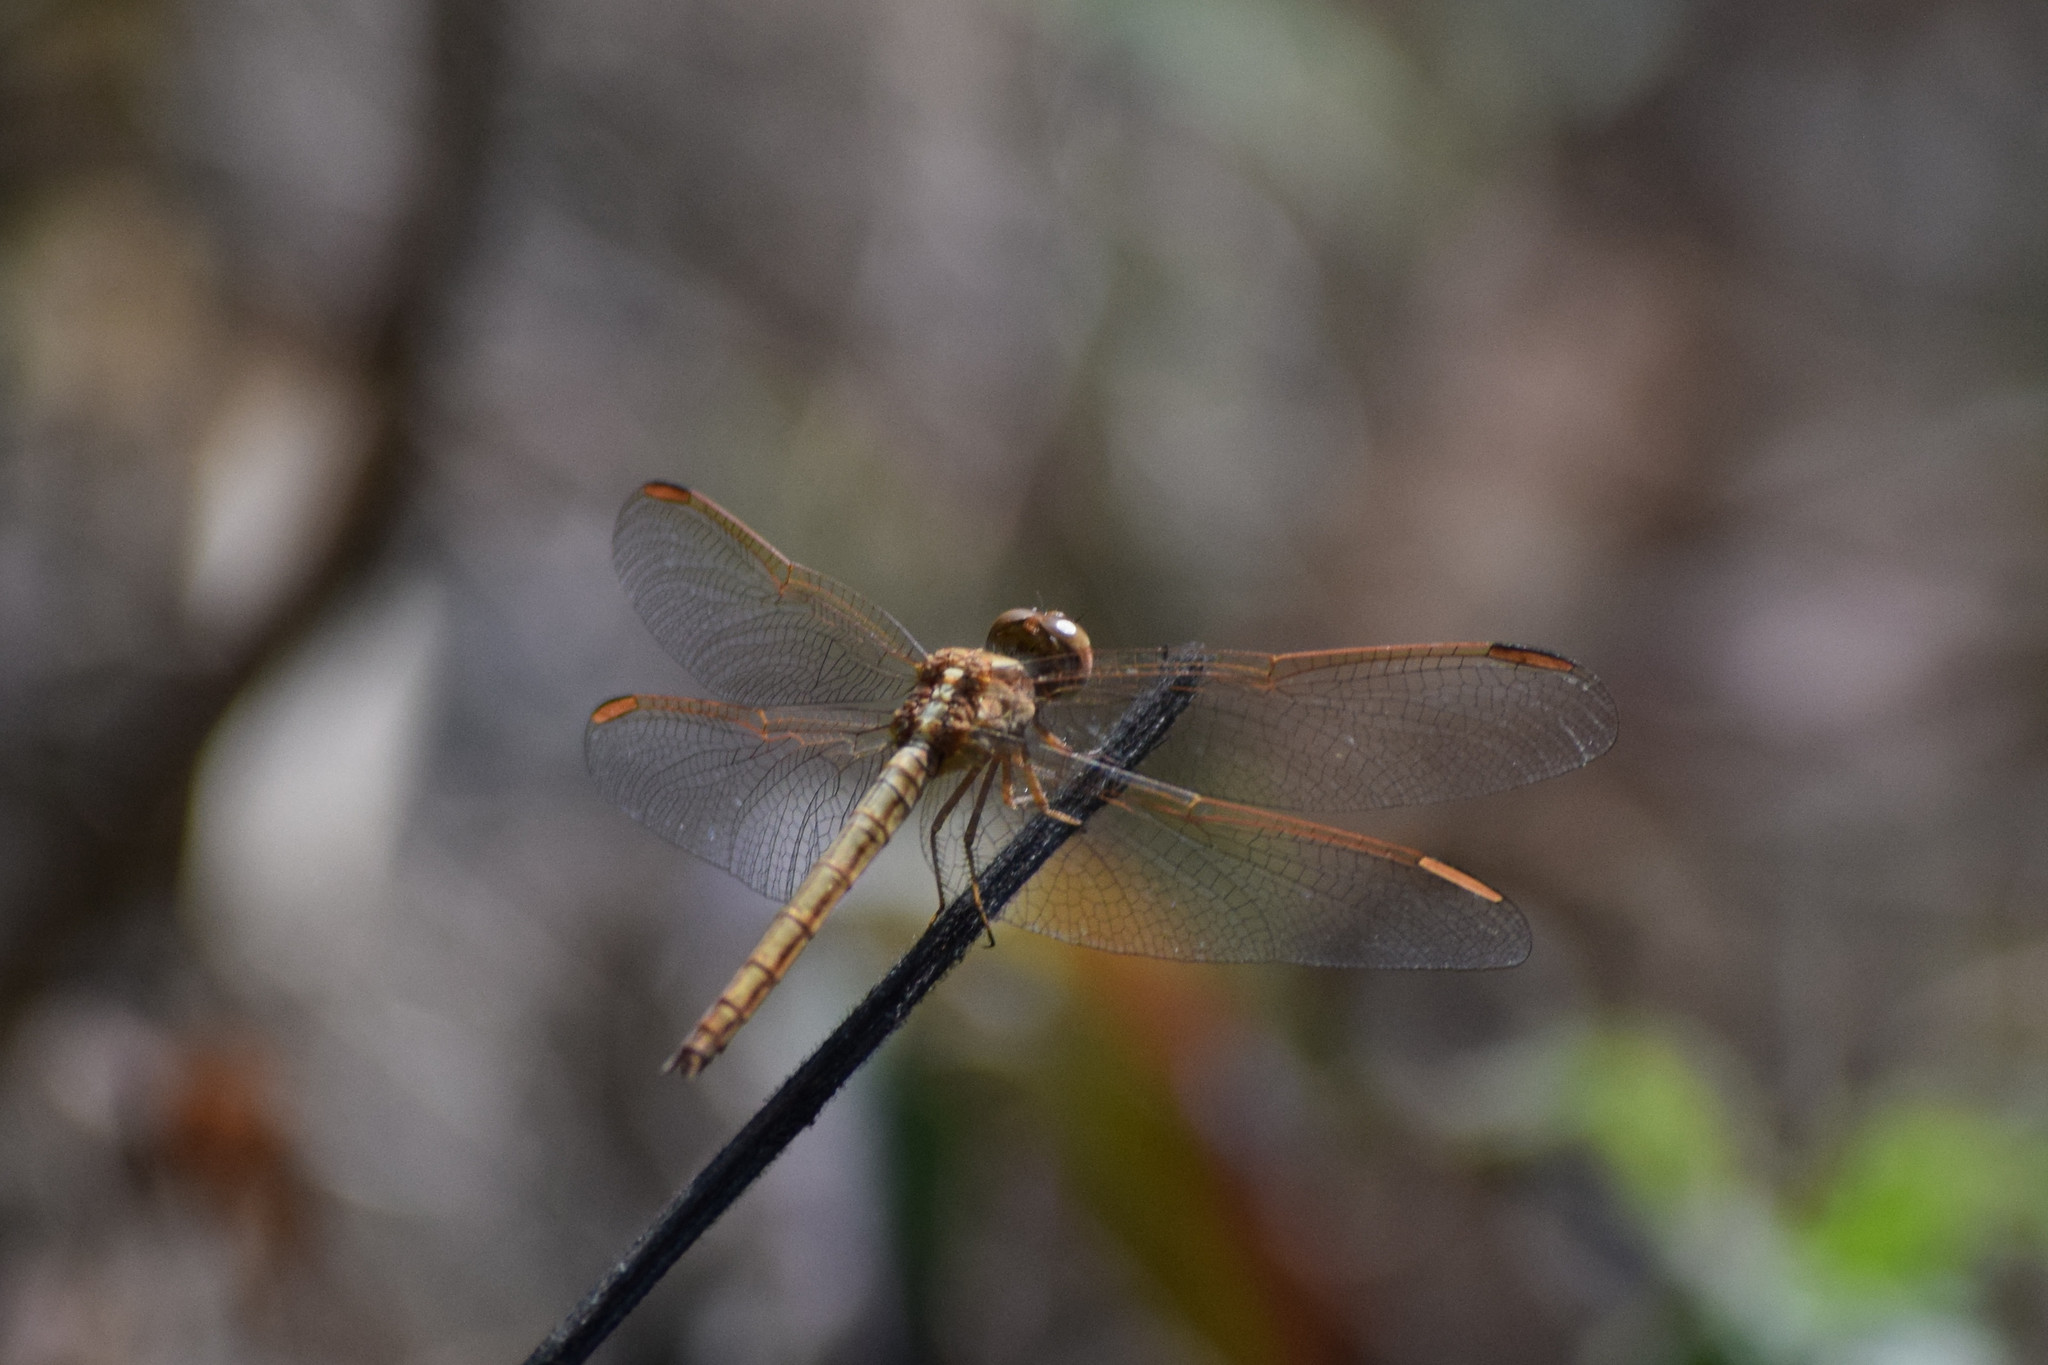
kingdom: Animalia
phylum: Arthropoda
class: Insecta
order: Odonata
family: Libellulidae
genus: Neurothemis
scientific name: Neurothemis intermedia
